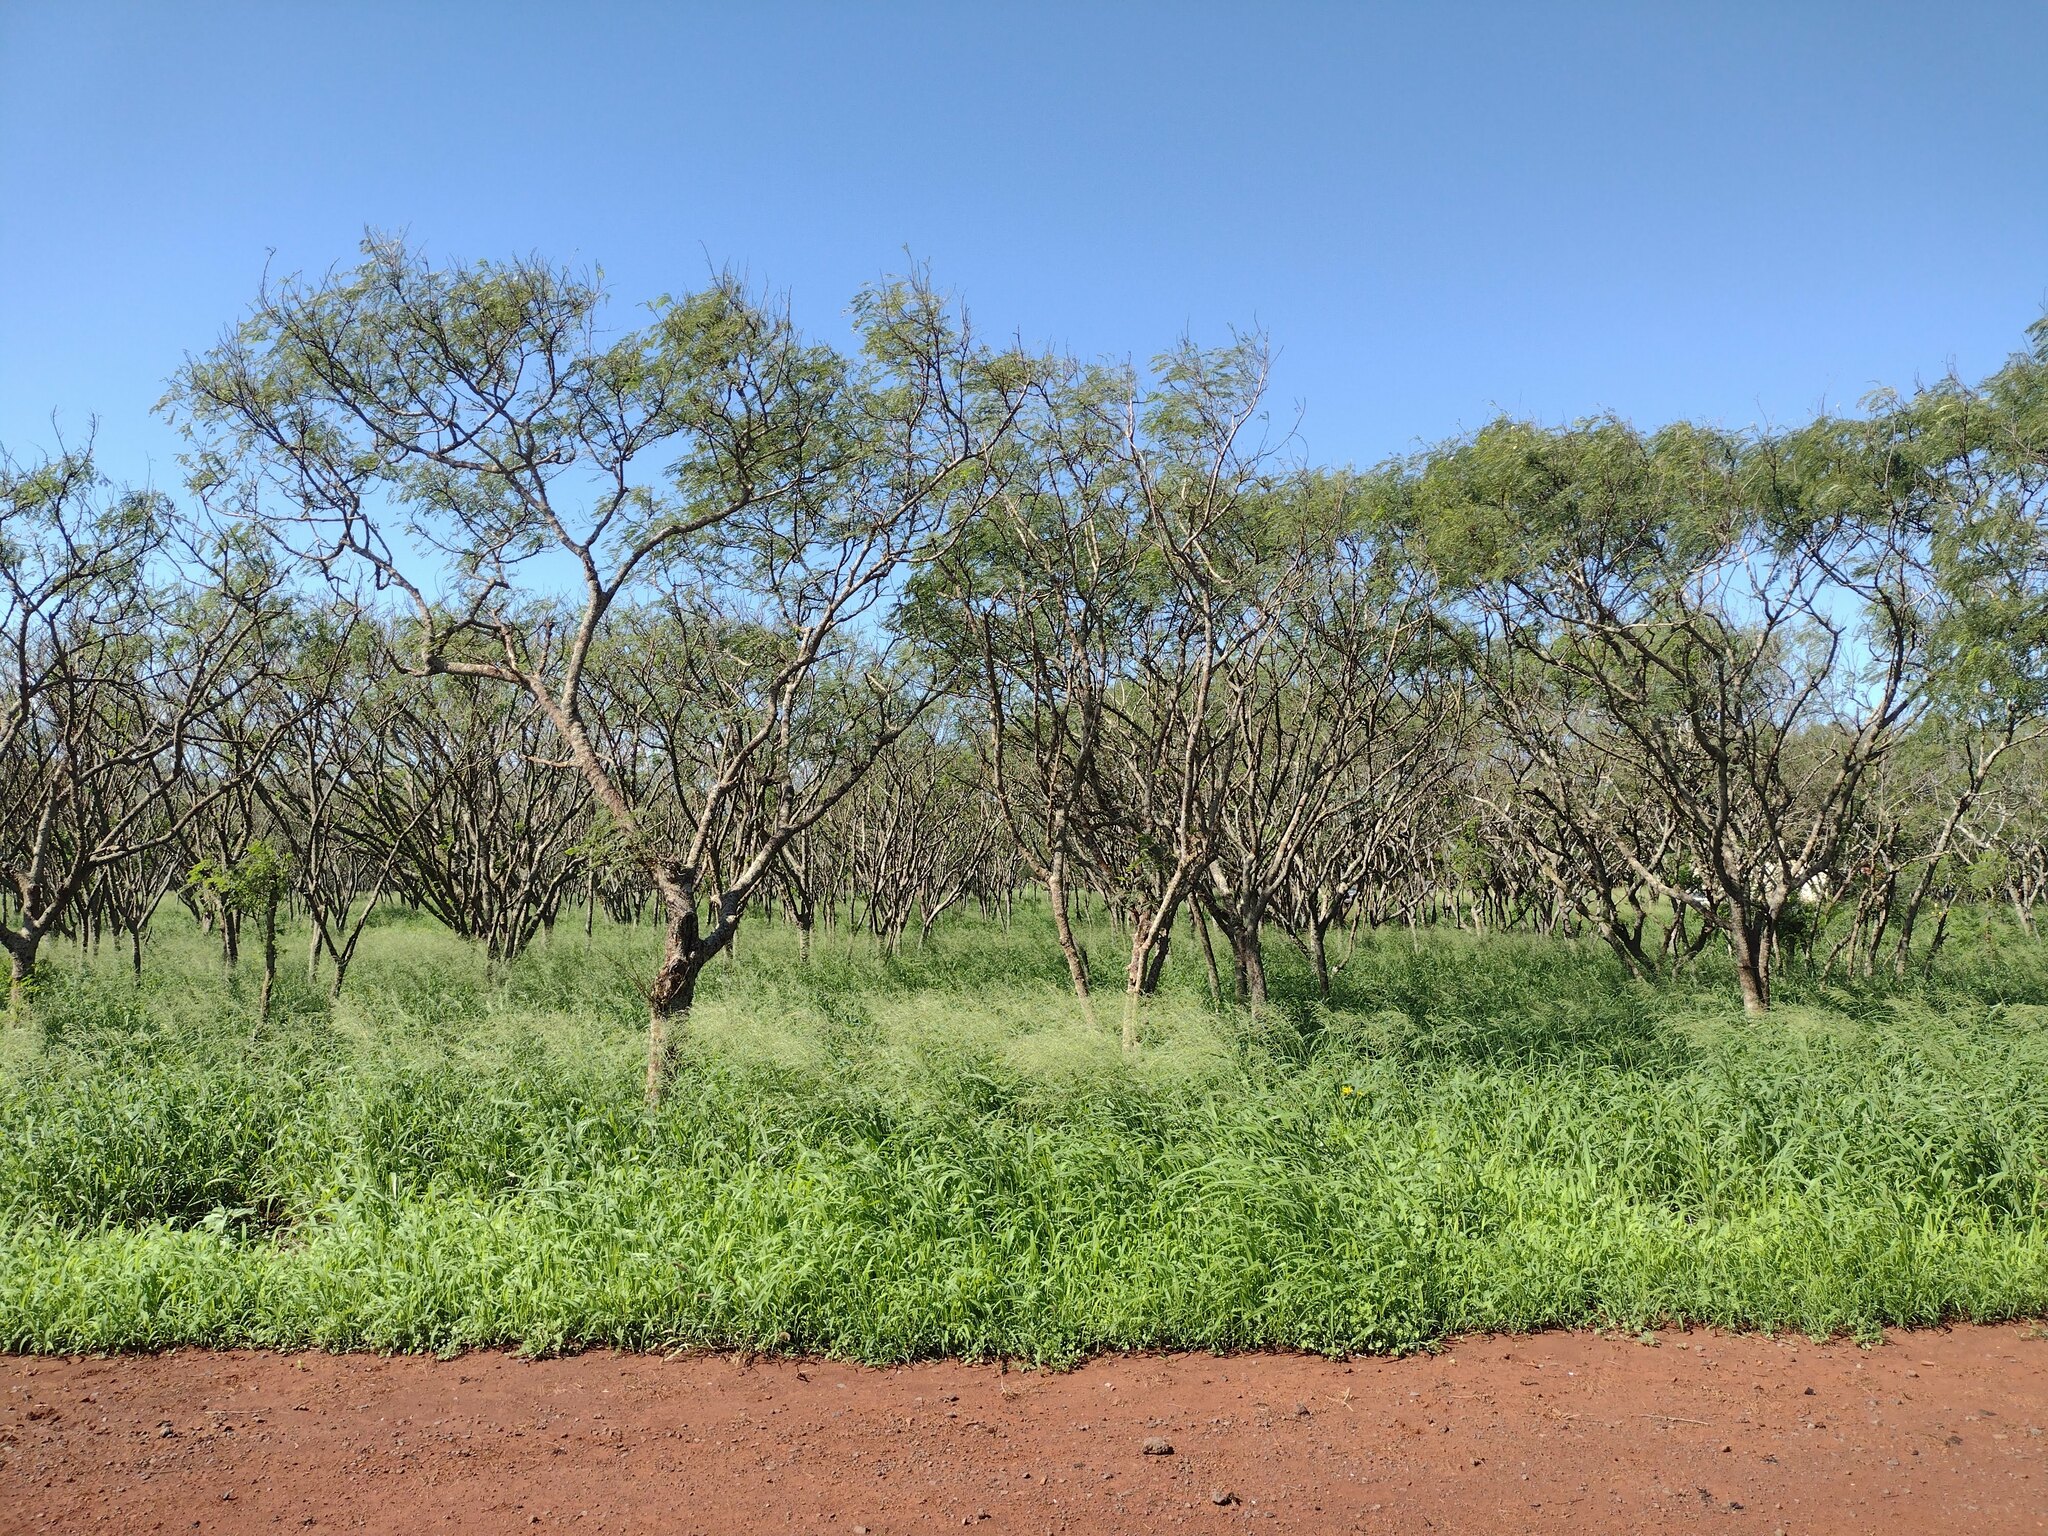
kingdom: Plantae
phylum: Tracheophyta
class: Magnoliopsida
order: Fabales
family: Fabaceae
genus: Leucaena
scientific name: Leucaena leucocephala
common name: White leadtree
